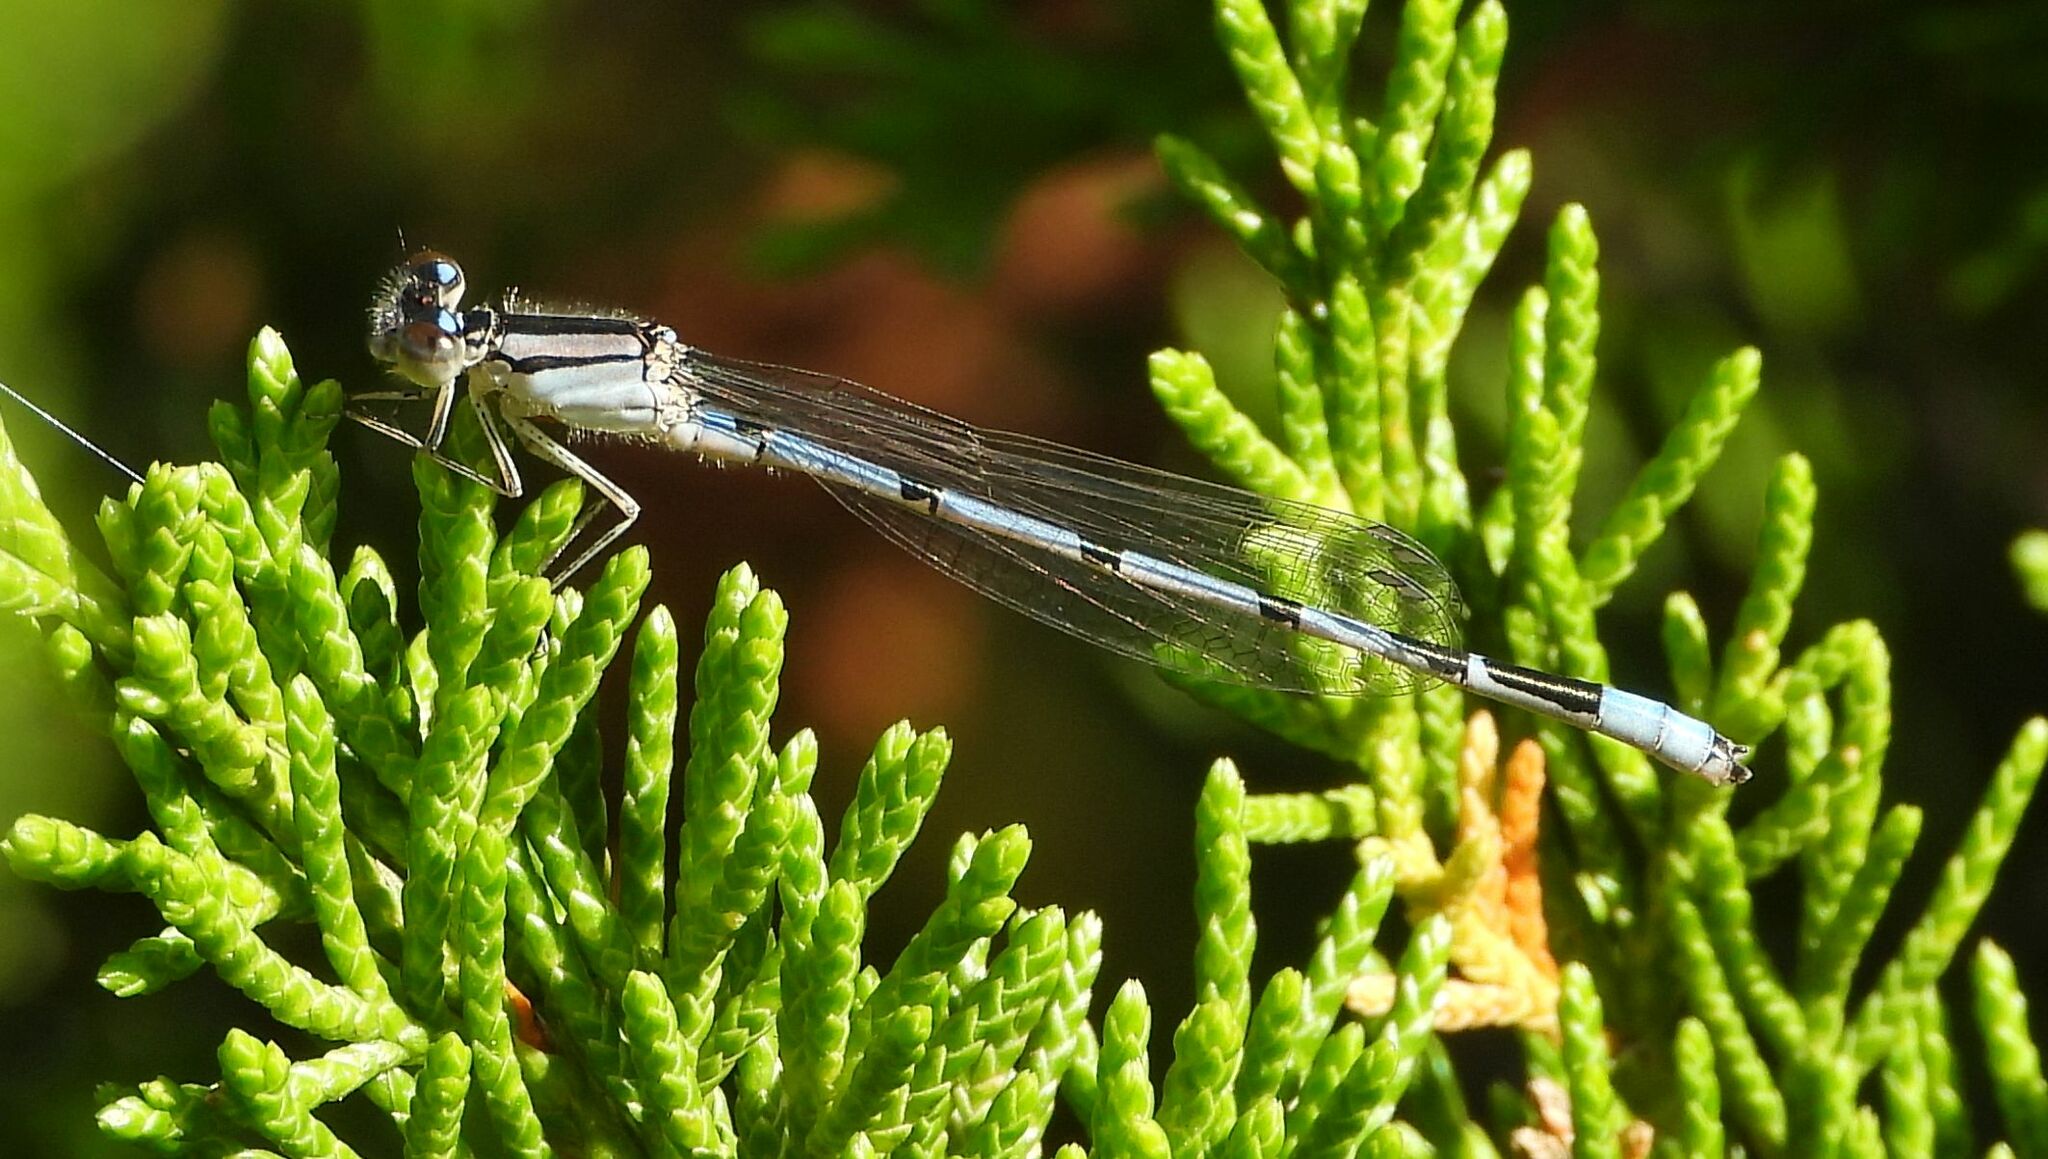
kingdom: Animalia
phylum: Arthropoda
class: Insecta
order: Odonata
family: Coenagrionidae
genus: Enallagma
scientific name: Enallagma civile
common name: Damselfly
